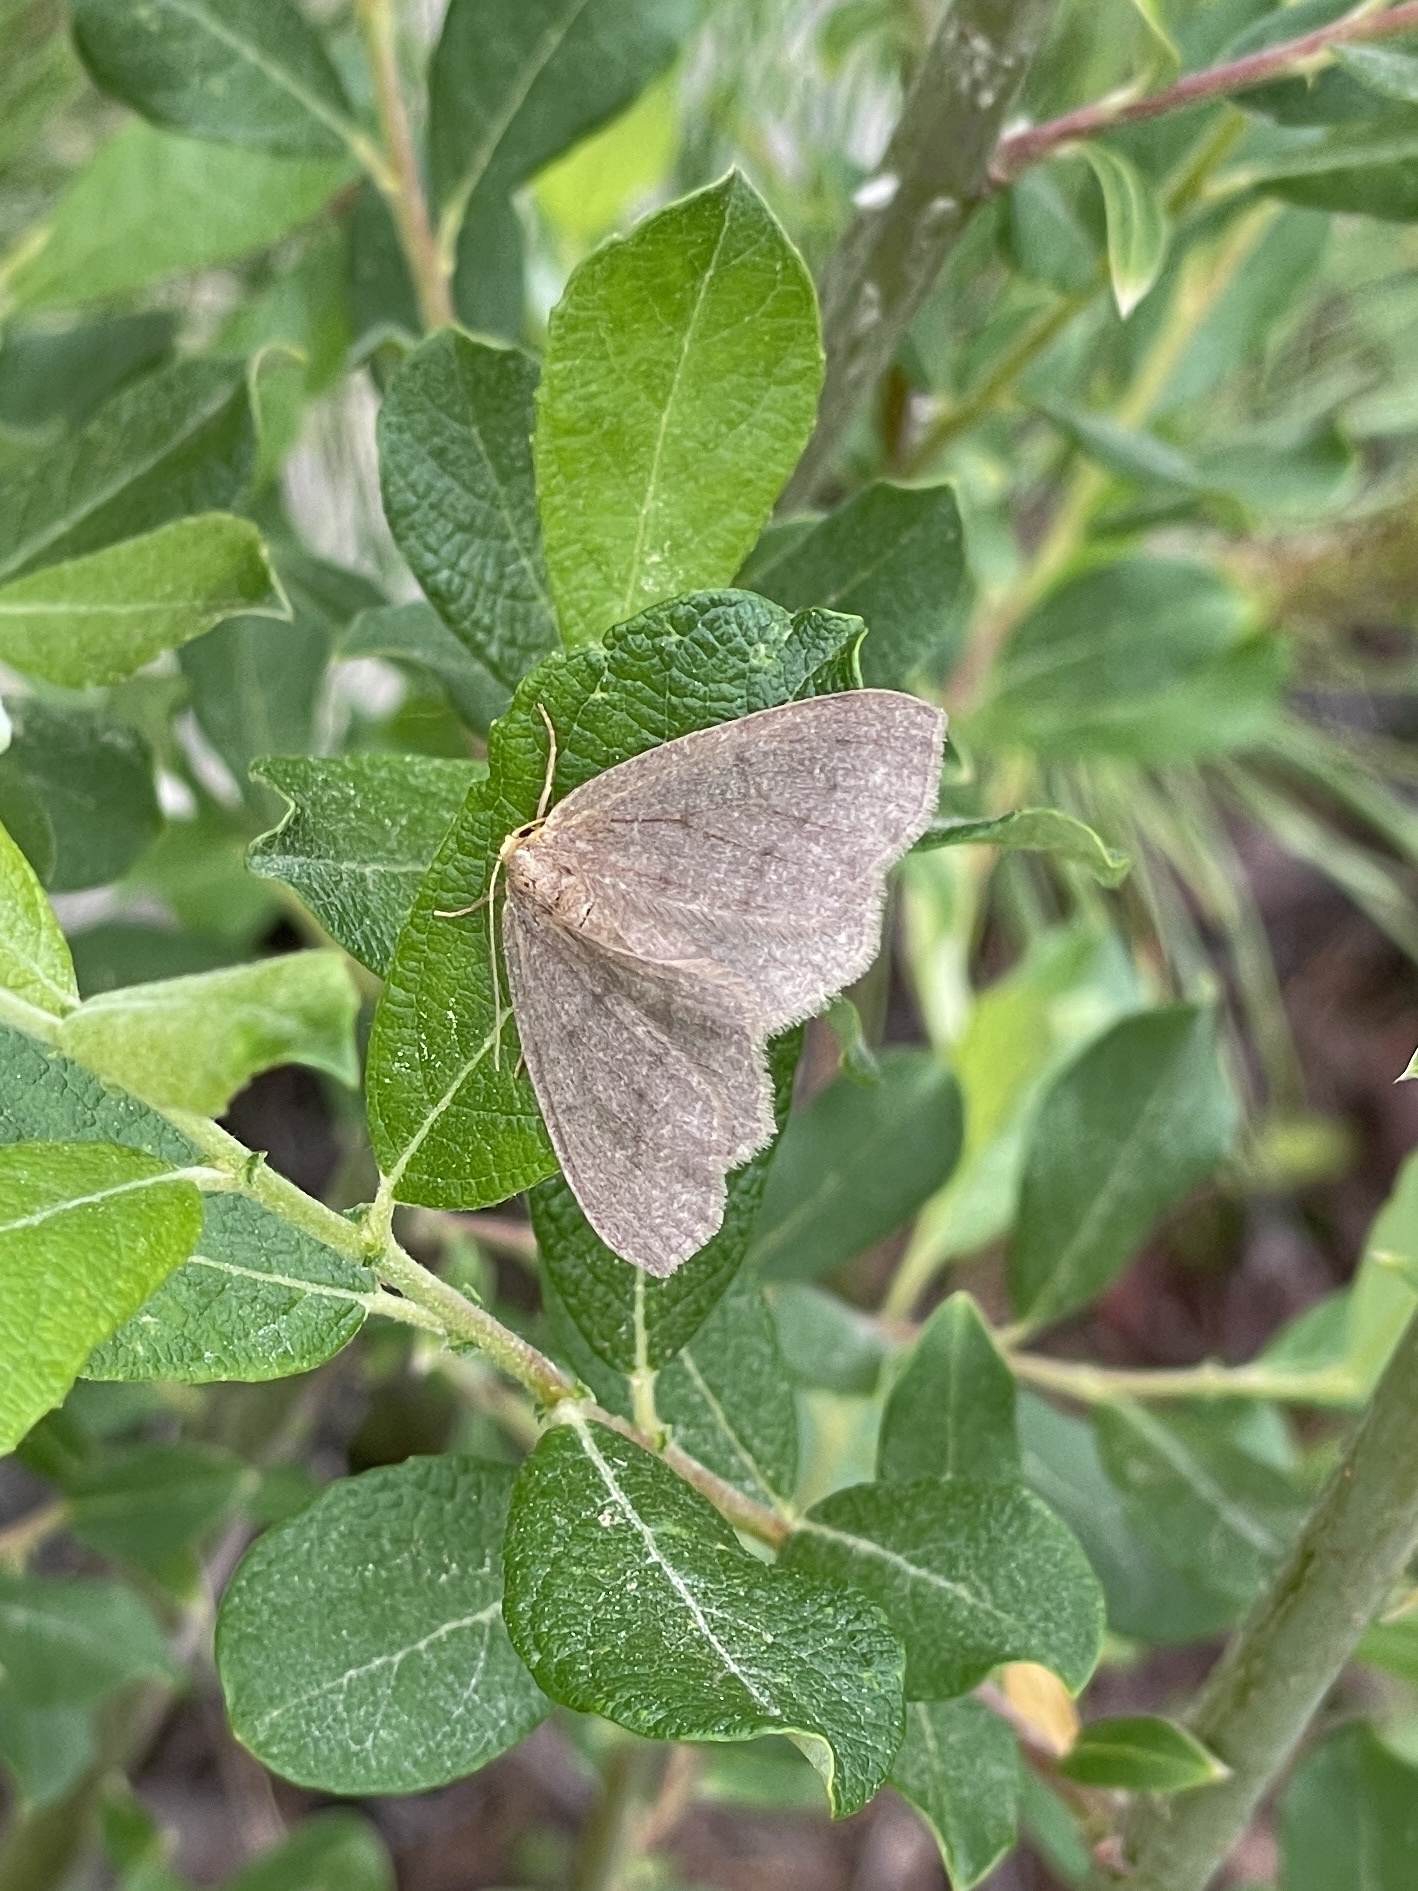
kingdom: Animalia
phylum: Arthropoda
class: Insecta
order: Lepidoptera
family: Geometridae
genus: Lambdina
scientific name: Lambdina pellucidaria
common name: Eastern pinelooper
